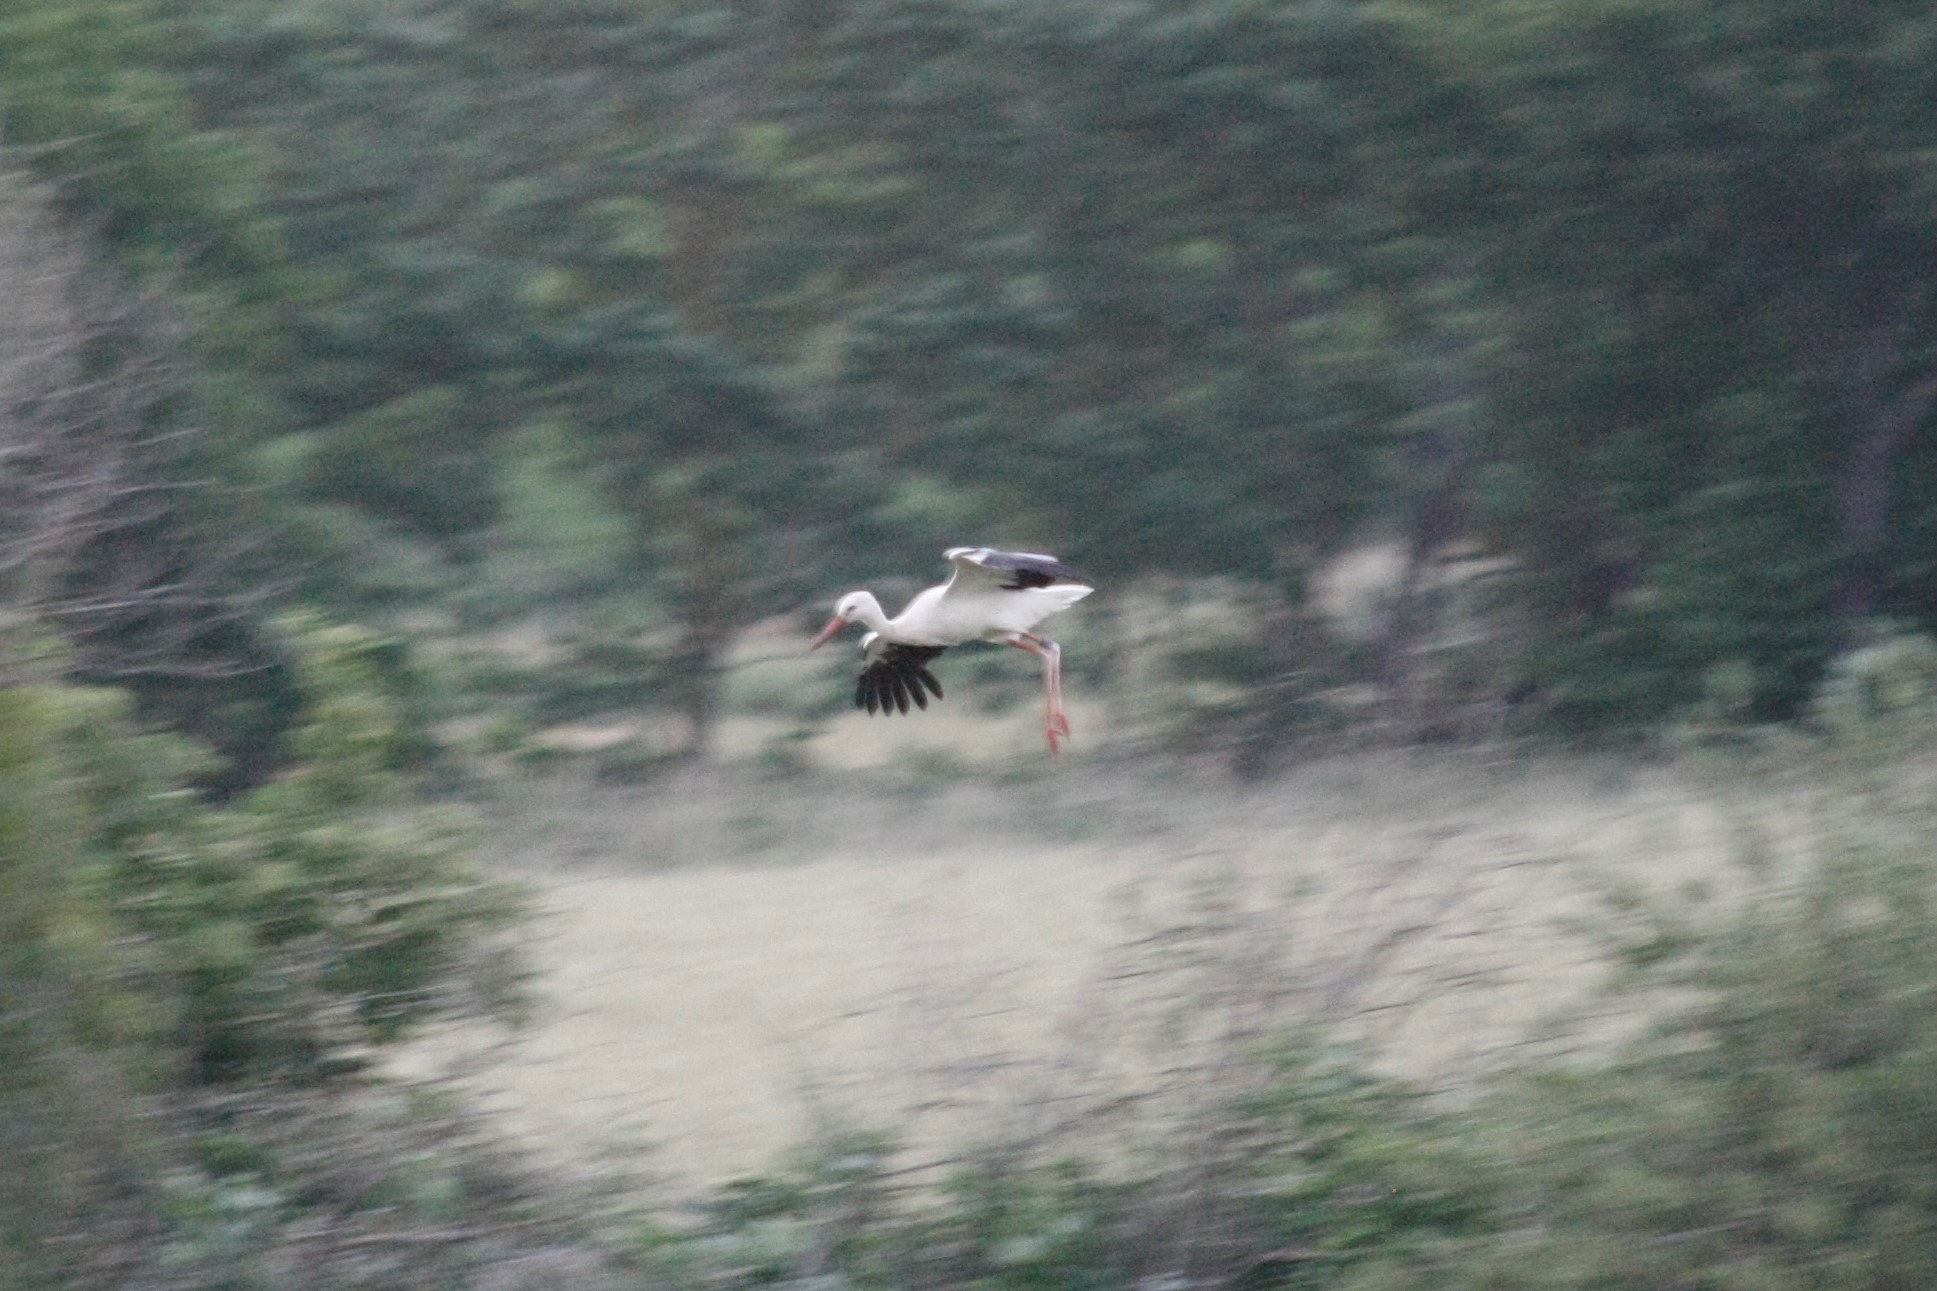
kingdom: Animalia
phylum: Chordata
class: Aves
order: Ciconiiformes
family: Ciconiidae
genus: Ciconia
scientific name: Ciconia ciconia
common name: White stork
